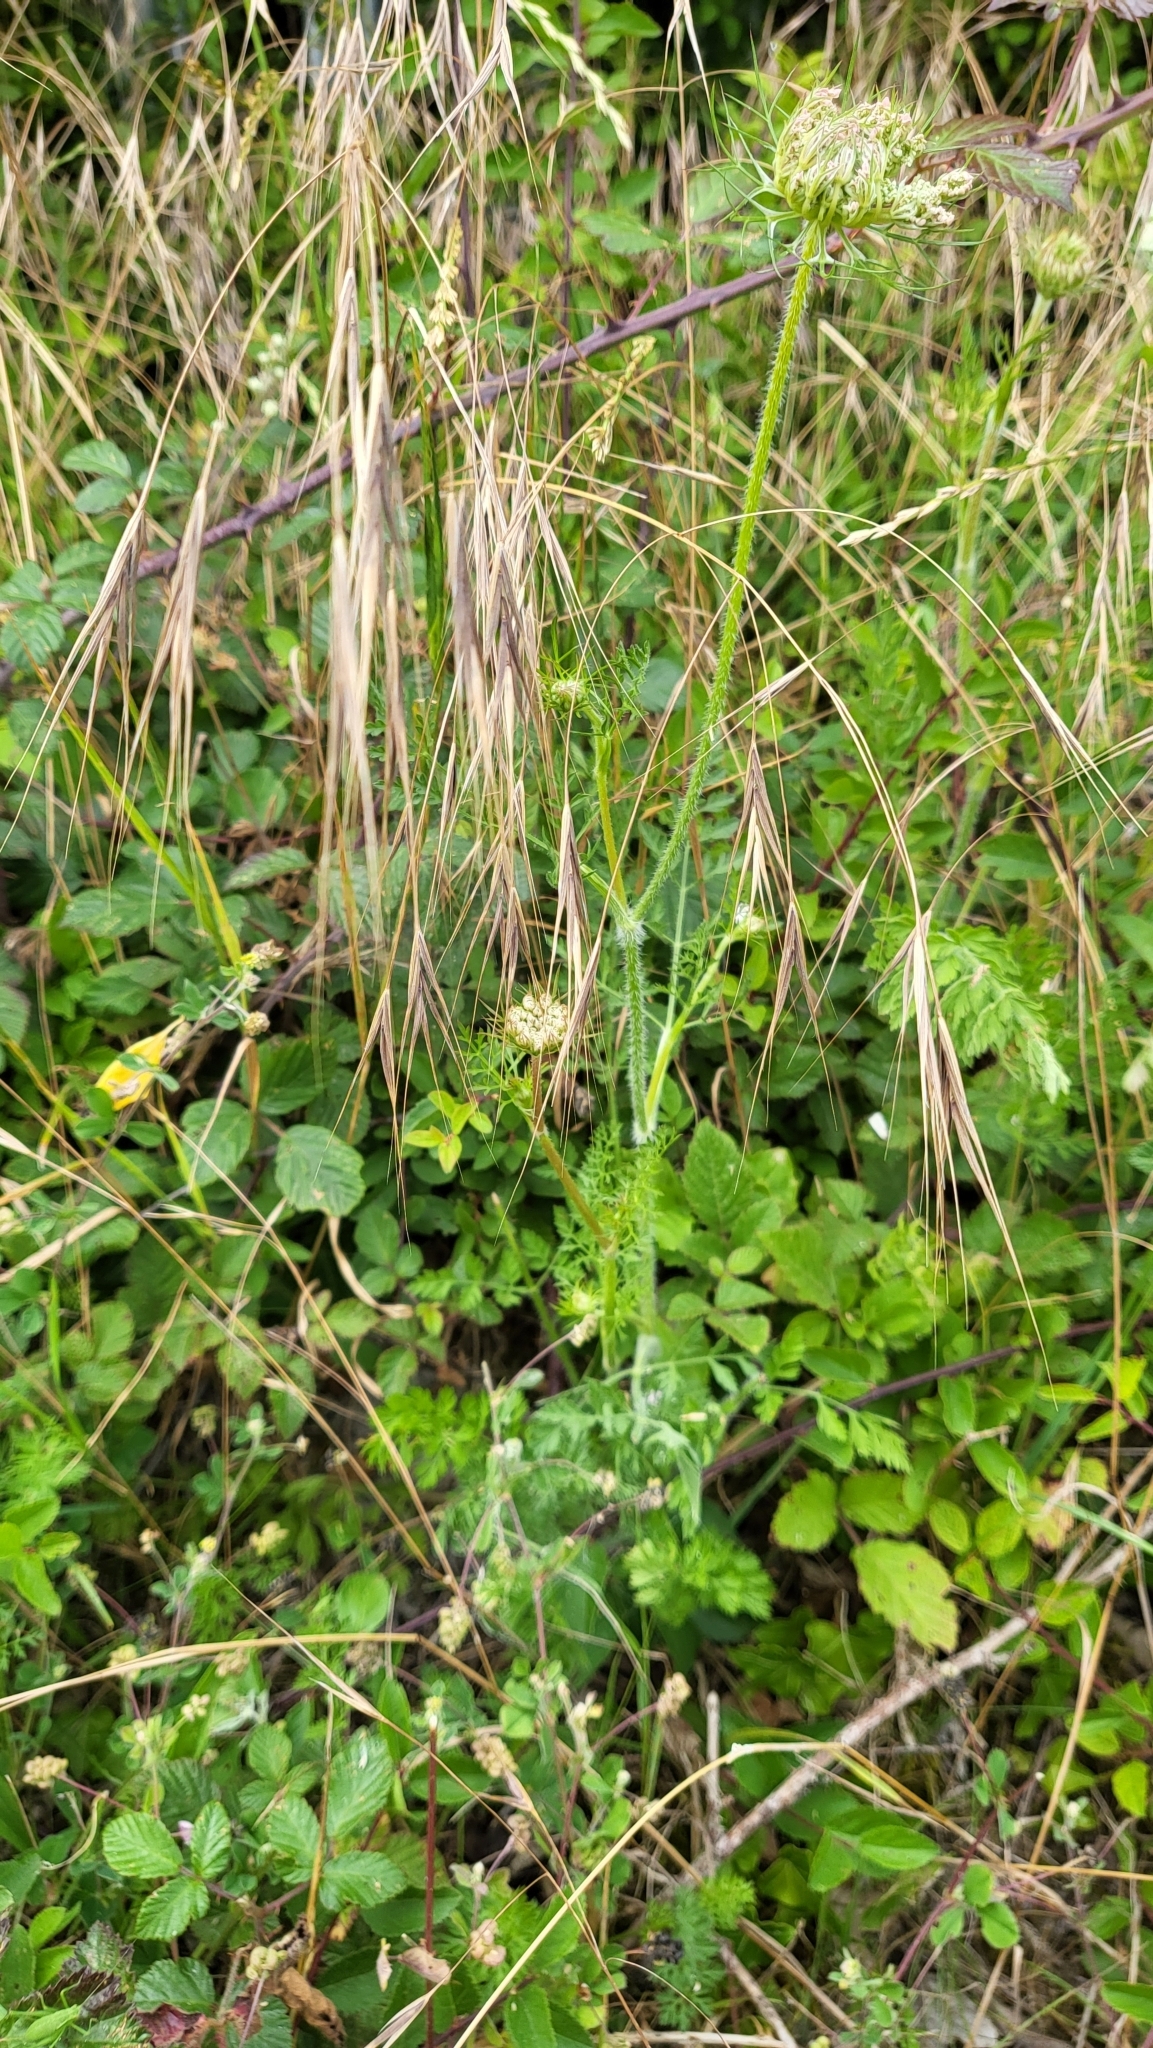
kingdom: Plantae
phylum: Tracheophyta
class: Magnoliopsida
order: Apiales
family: Apiaceae
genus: Daucus
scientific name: Daucus carota
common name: Wild carrot
